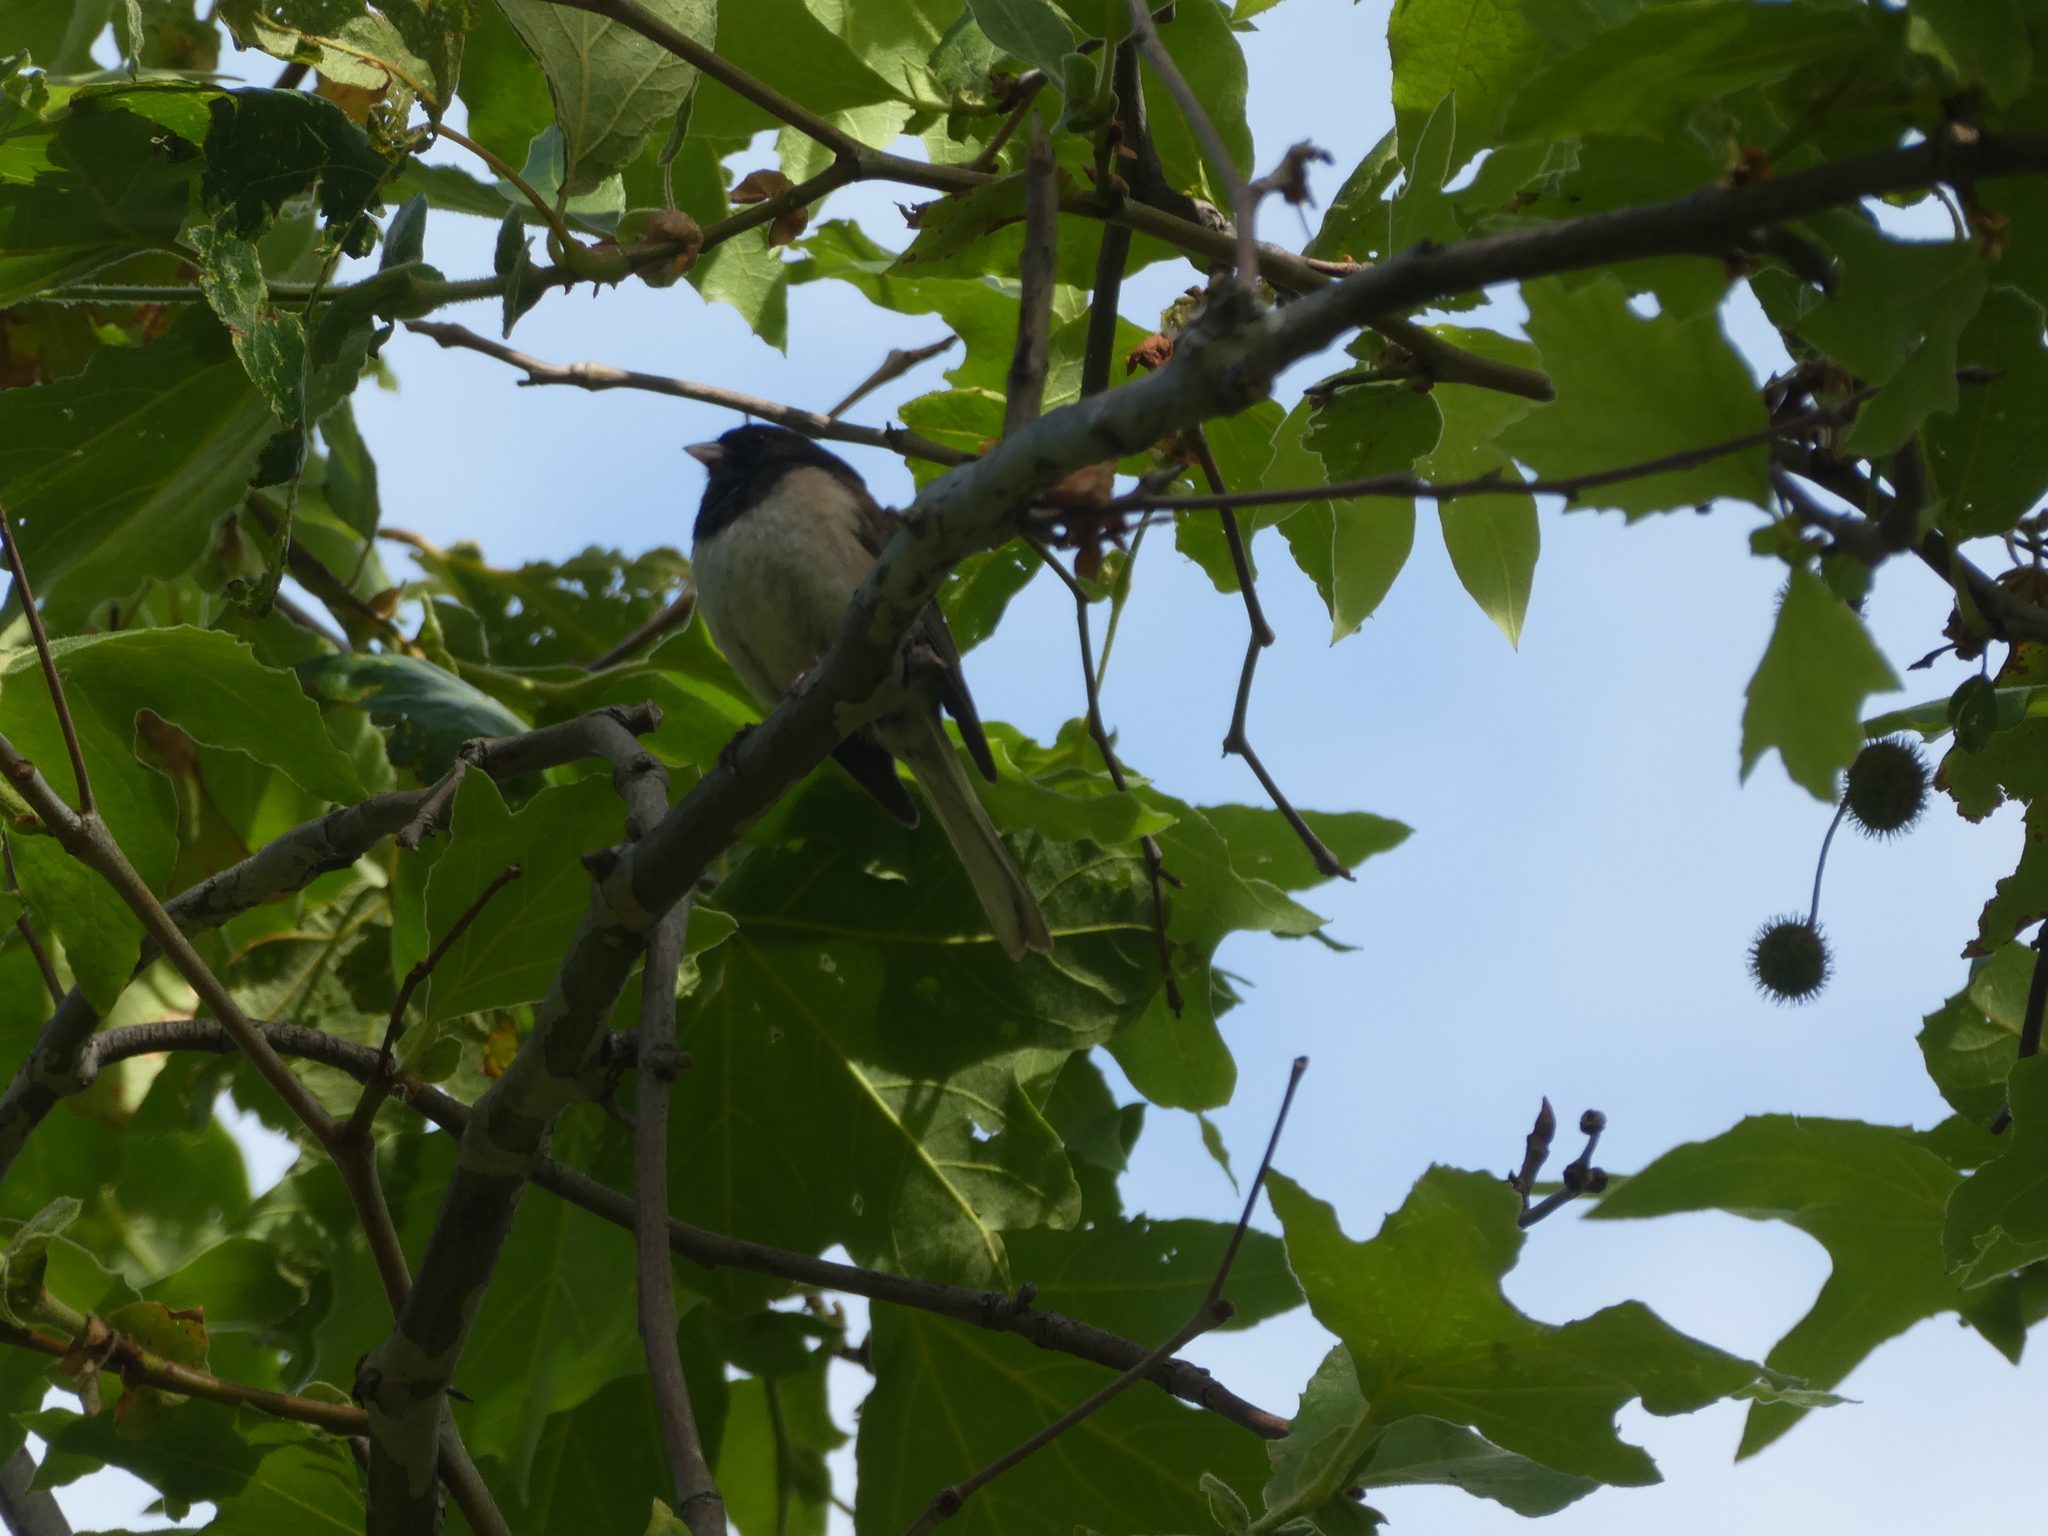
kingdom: Animalia
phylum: Chordata
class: Aves
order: Passeriformes
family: Passerellidae
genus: Junco
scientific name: Junco hyemalis
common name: Dark-eyed junco
